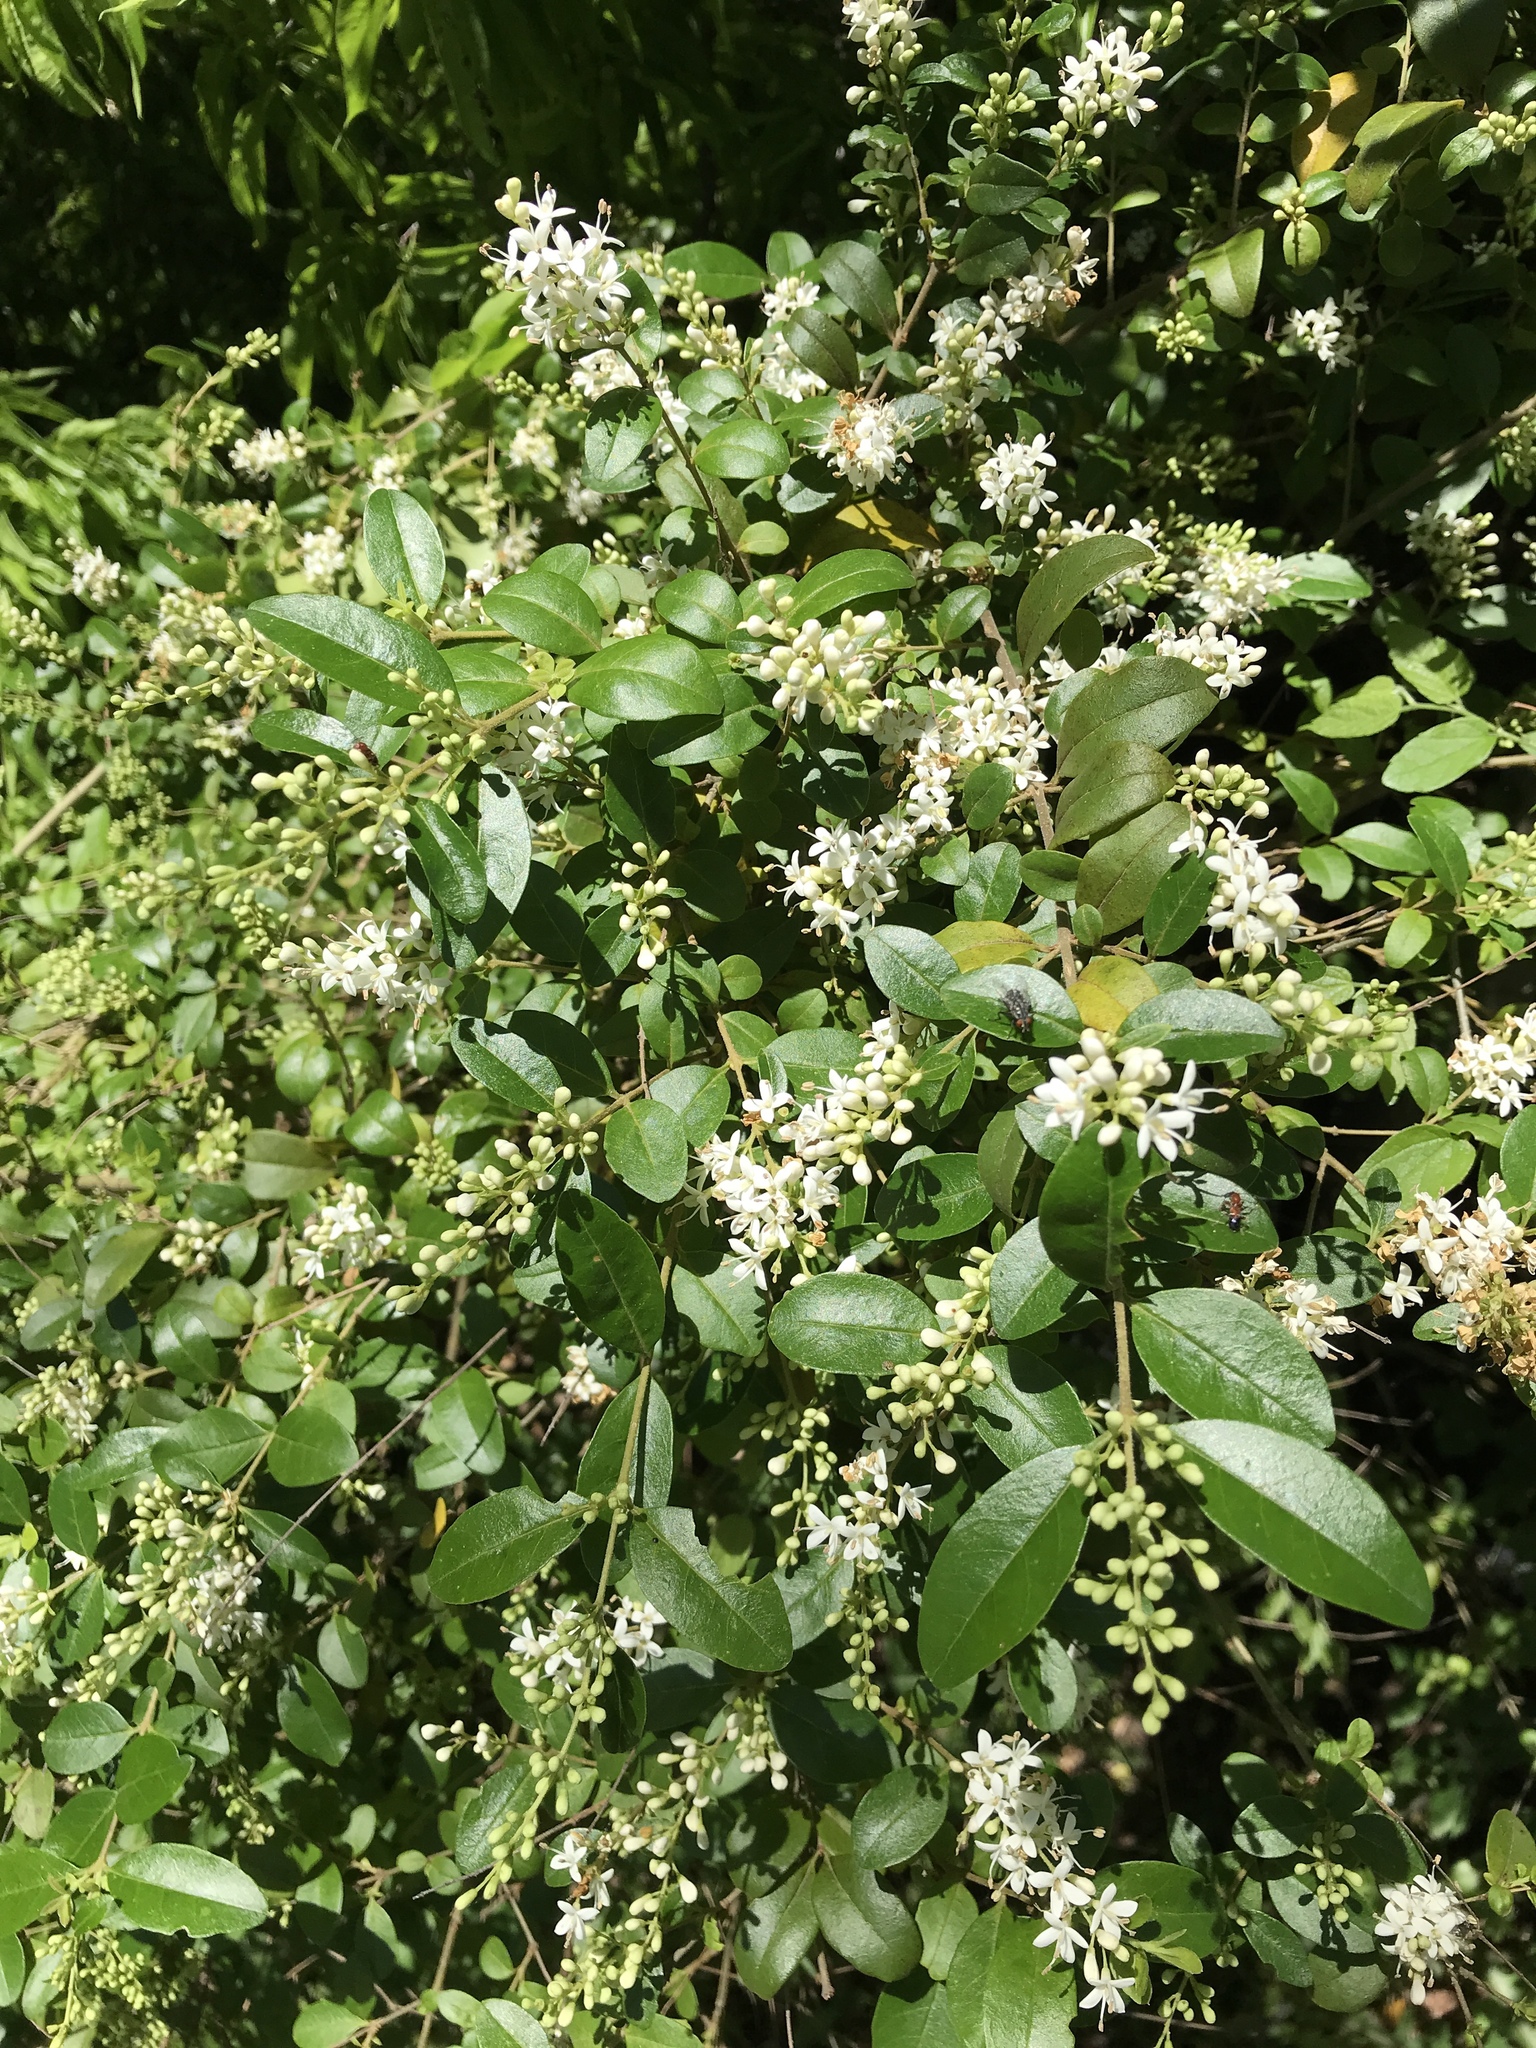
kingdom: Plantae
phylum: Tracheophyta
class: Magnoliopsida
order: Lamiales
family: Oleaceae
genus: Ligustrum
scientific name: Ligustrum sinense
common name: Chinese privet
